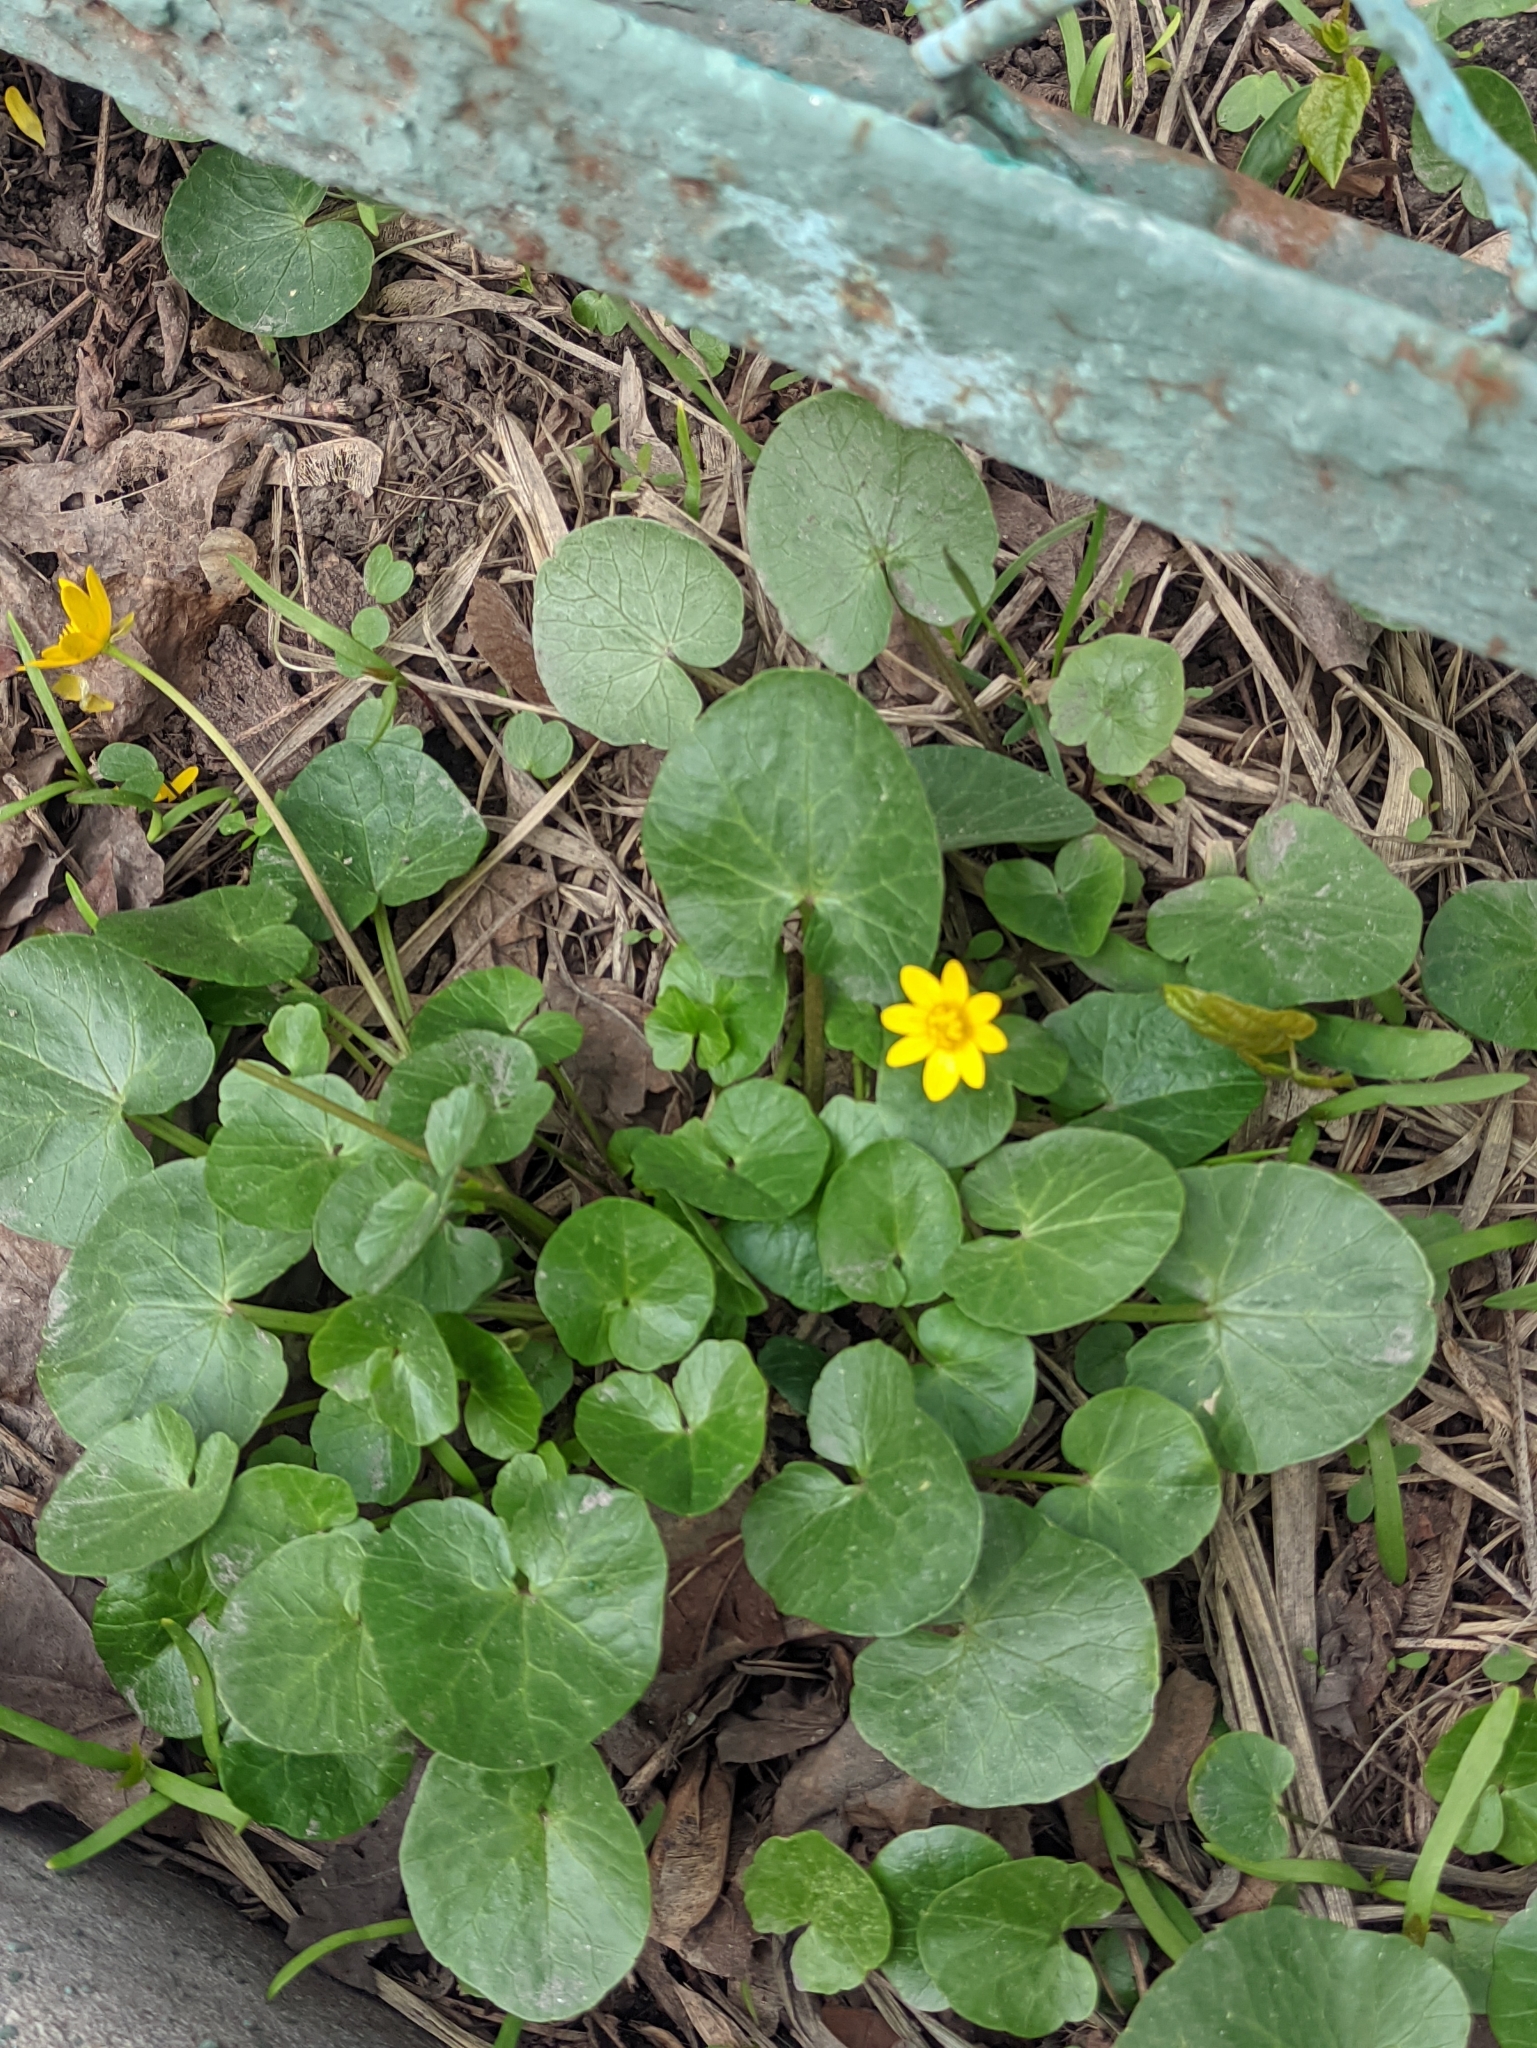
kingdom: Plantae
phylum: Tracheophyta
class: Magnoliopsida
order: Ranunculales
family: Ranunculaceae
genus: Ficaria
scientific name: Ficaria verna
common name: Lesser celandine
